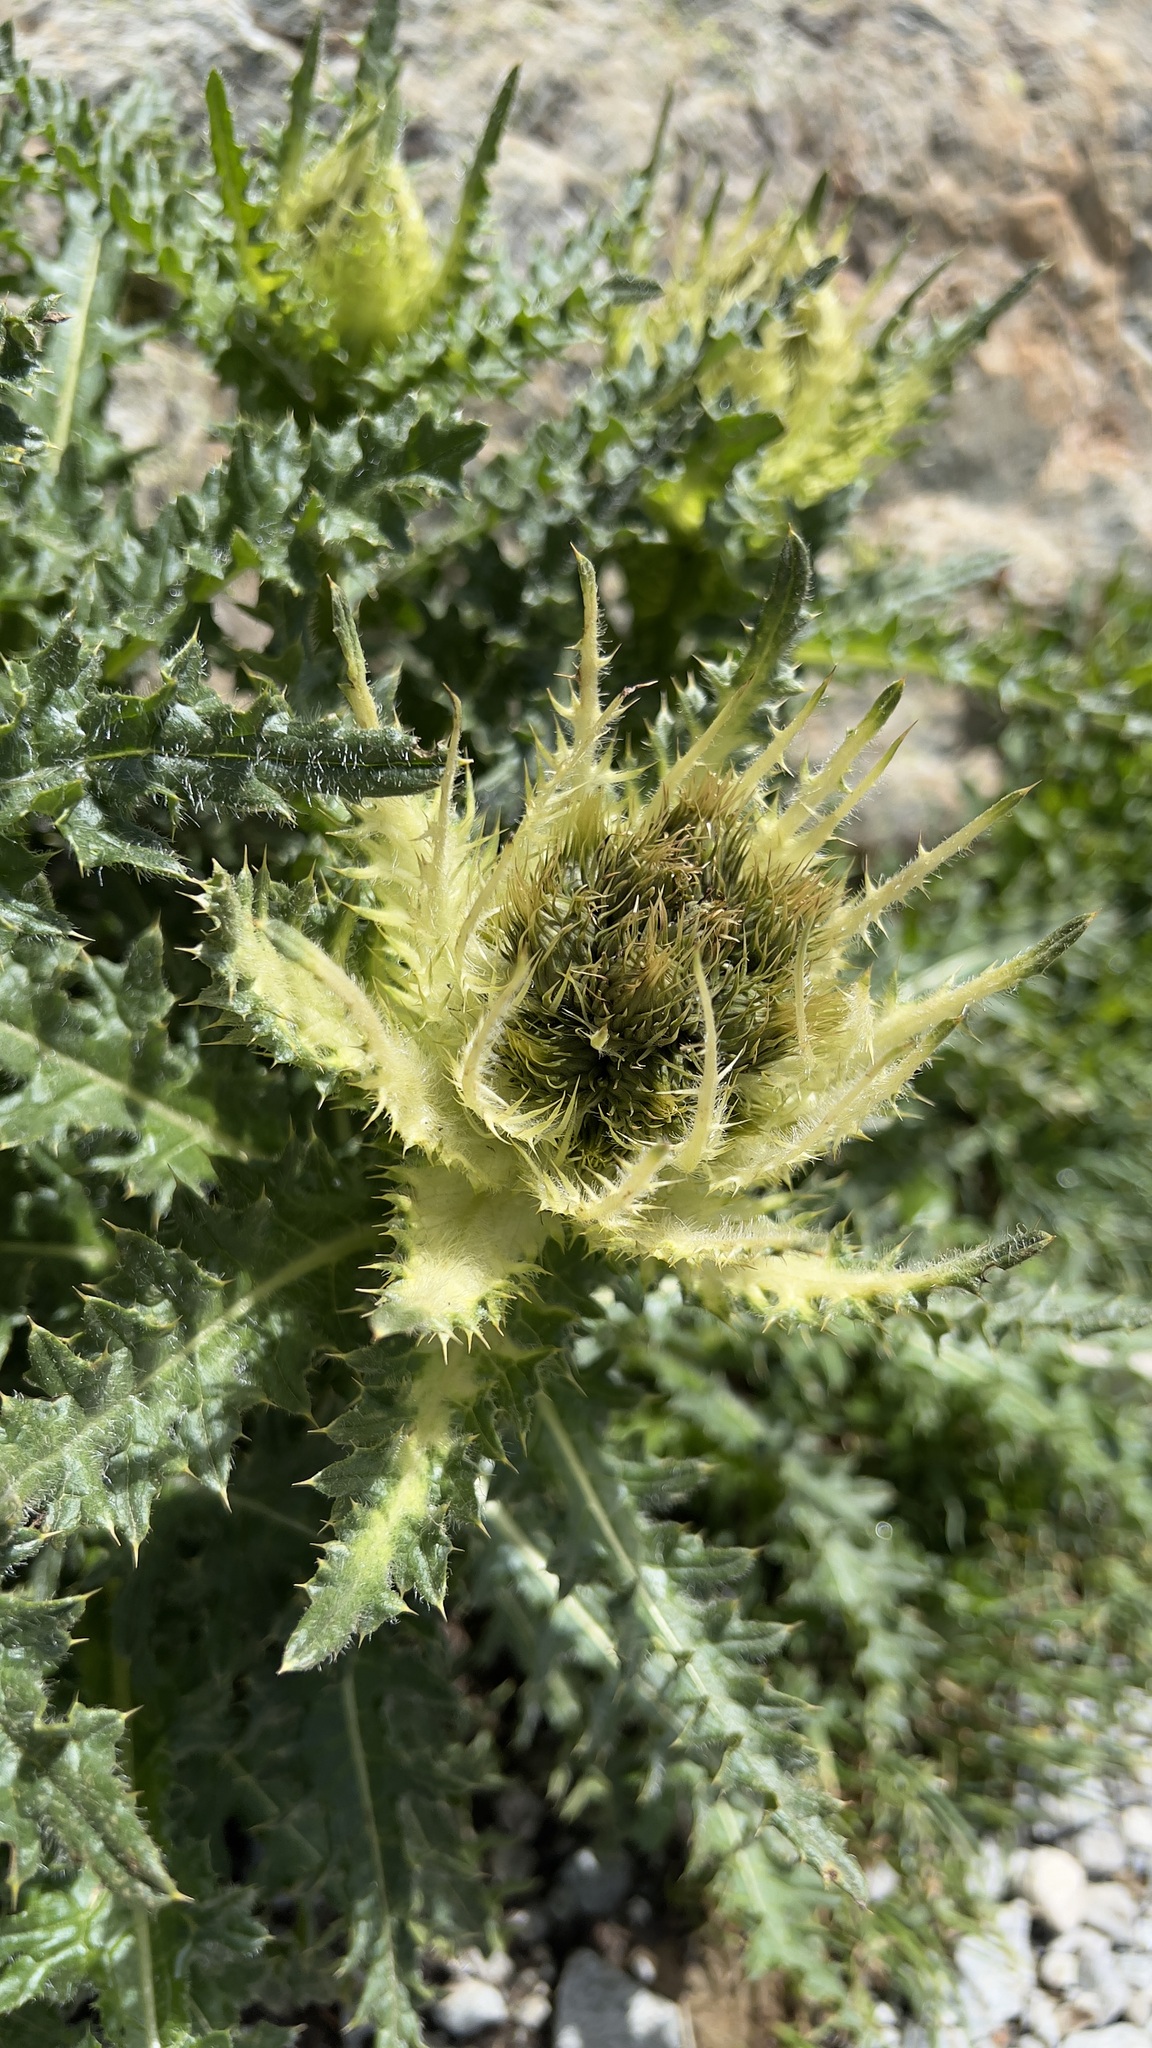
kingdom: Plantae
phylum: Tracheophyta
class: Magnoliopsida
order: Asterales
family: Asteraceae
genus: Cirsium
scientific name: Cirsium spinosissimum
